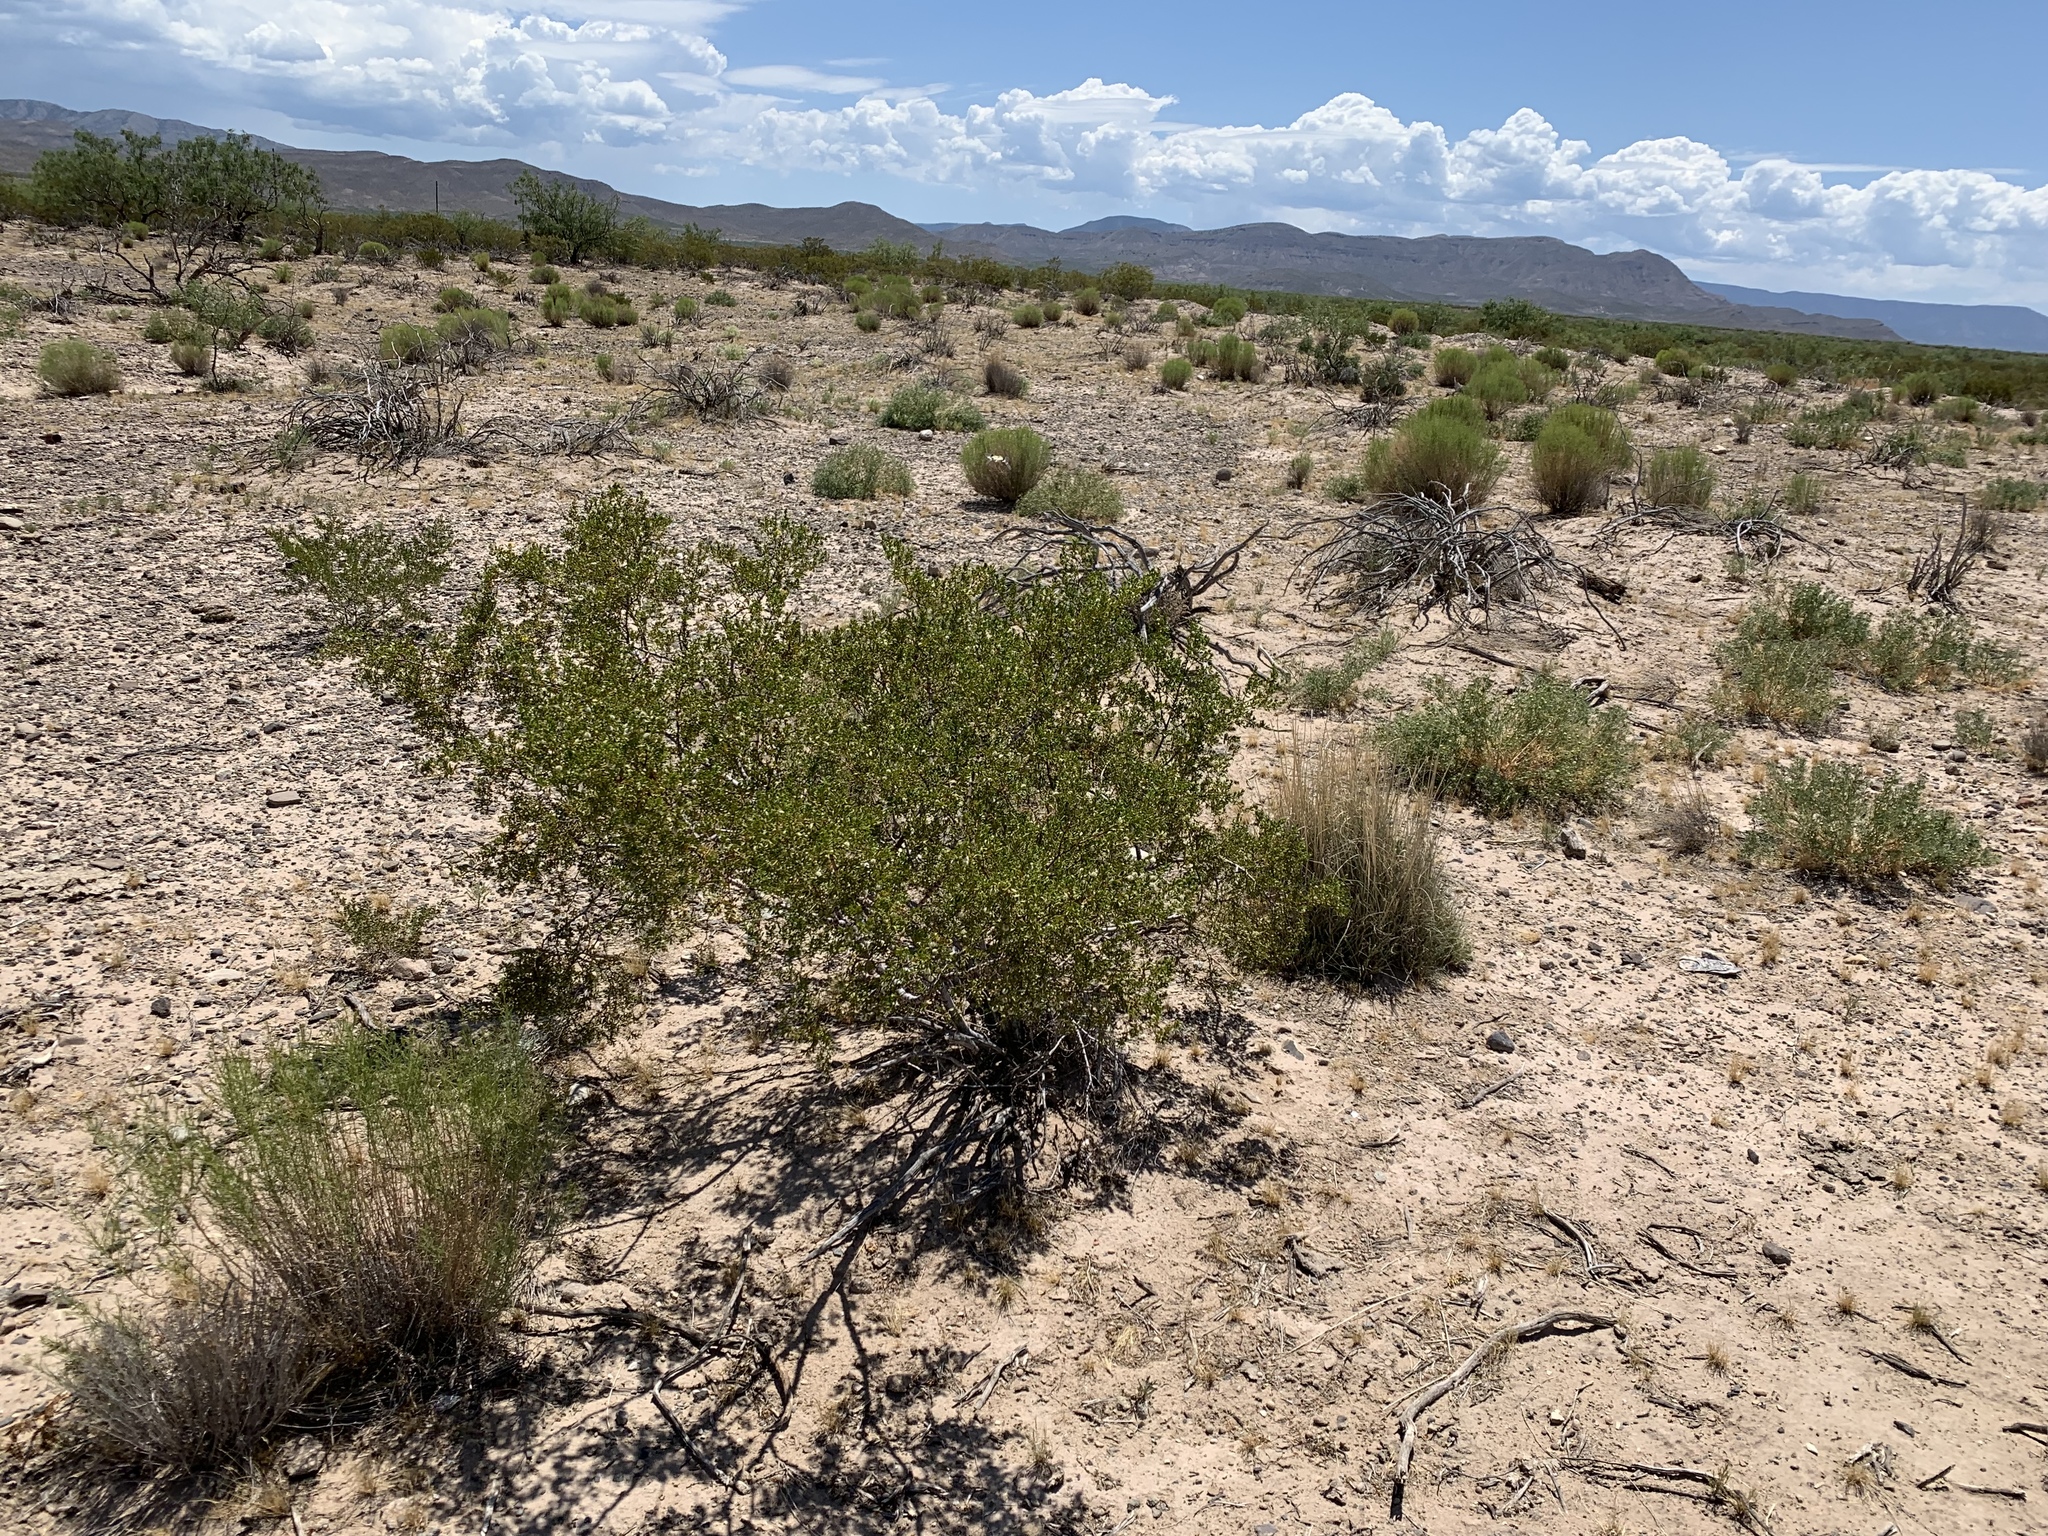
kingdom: Plantae
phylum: Tracheophyta
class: Magnoliopsida
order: Zygophyllales
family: Zygophyllaceae
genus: Larrea
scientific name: Larrea tridentata
